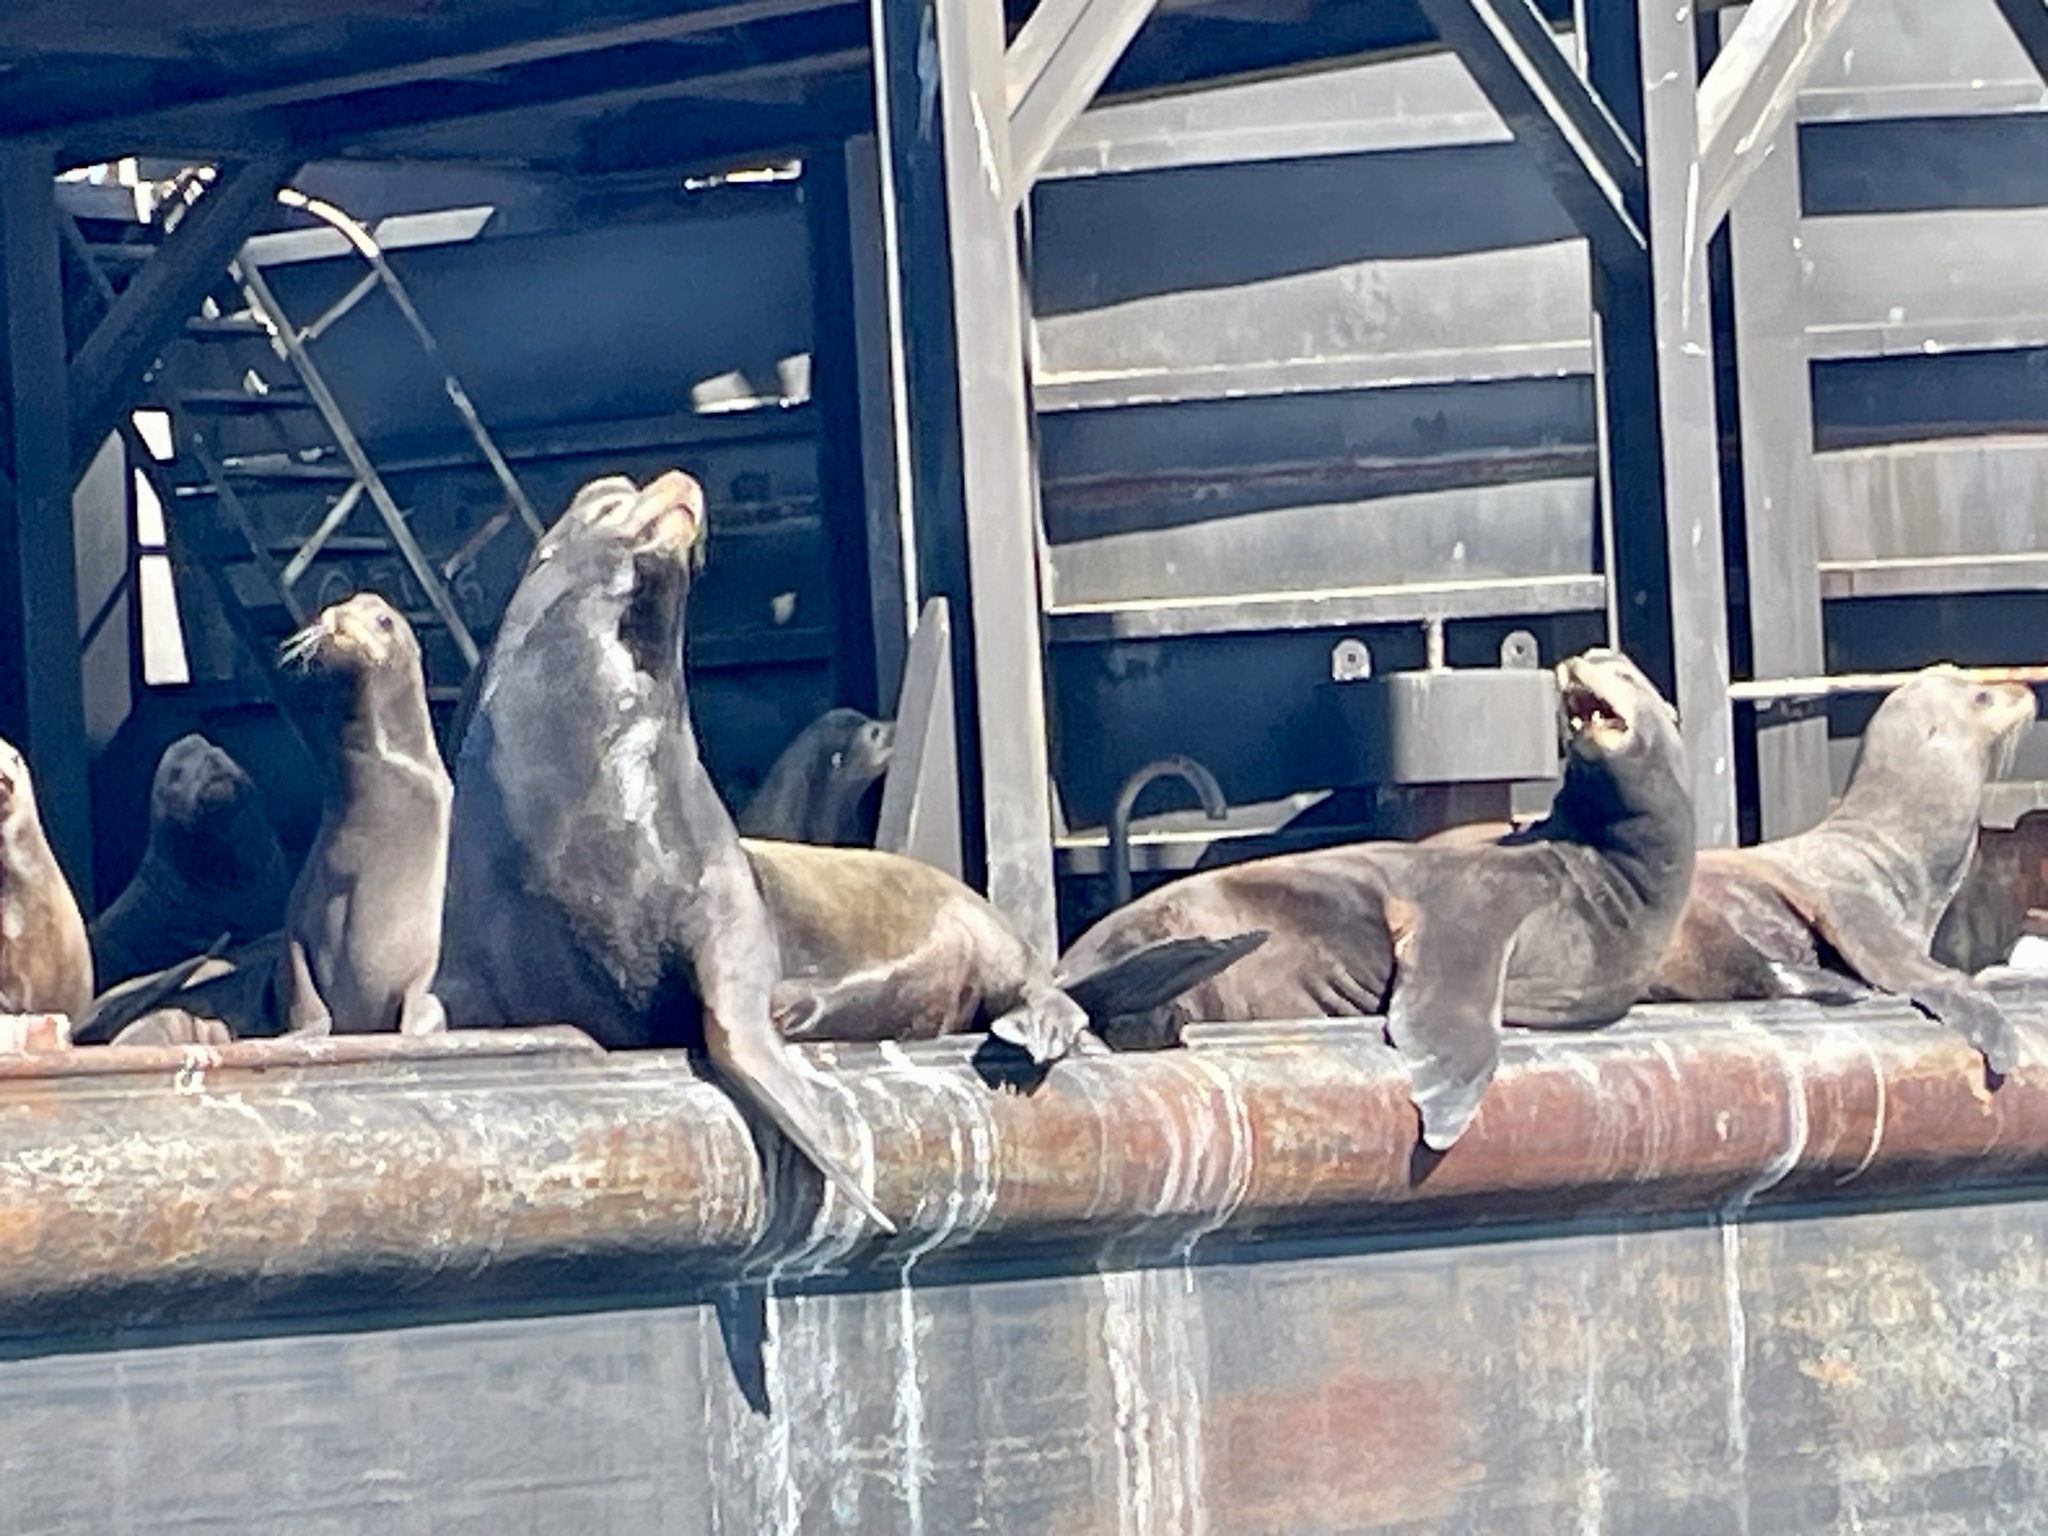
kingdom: Animalia
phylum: Chordata
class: Mammalia
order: Carnivora
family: Otariidae
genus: Zalophus
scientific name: Zalophus californianus
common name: California sea lion
